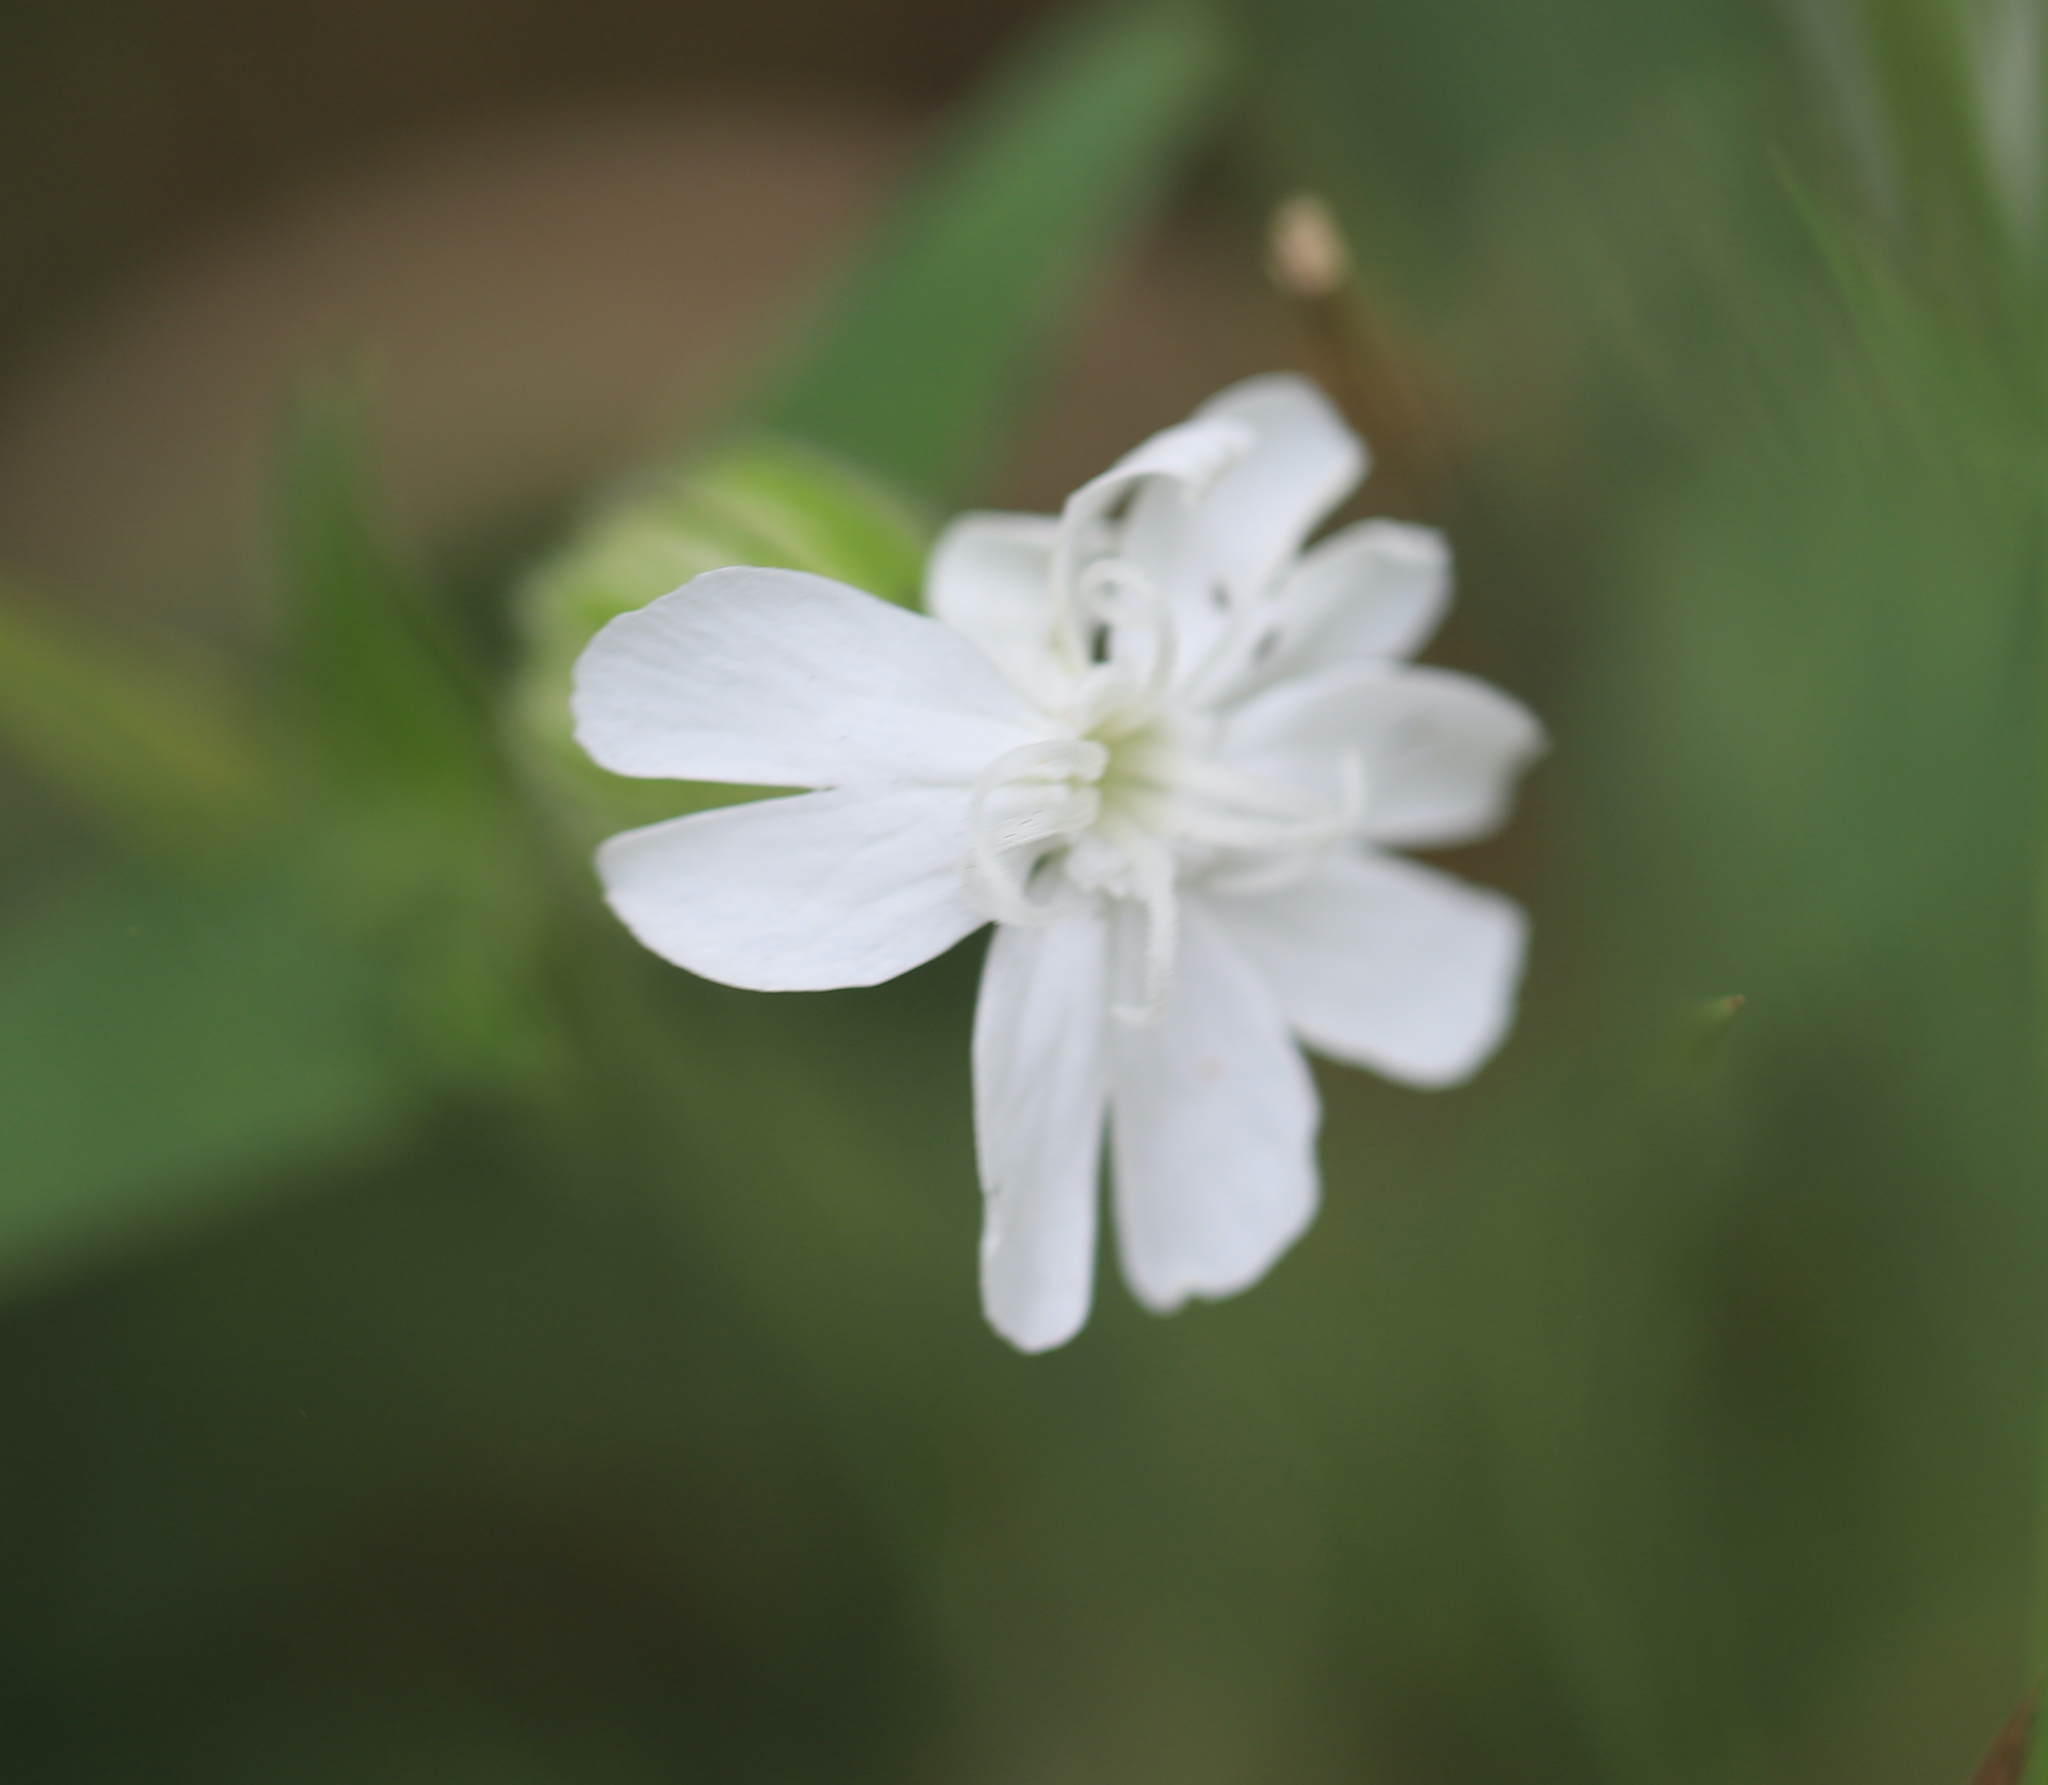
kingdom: Plantae
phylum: Tracheophyta
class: Magnoliopsida
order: Caryophyllales
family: Caryophyllaceae
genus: Silene
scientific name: Silene latifolia
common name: White campion
